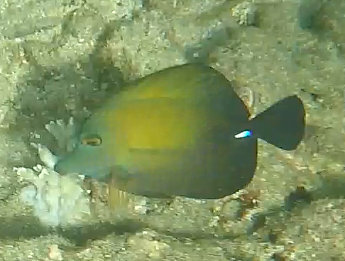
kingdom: Animalia
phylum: Chordata
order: Perciformes
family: Acanthuridae
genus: Zebrasoma
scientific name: Zebrasoma scopas
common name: Twotone tang
